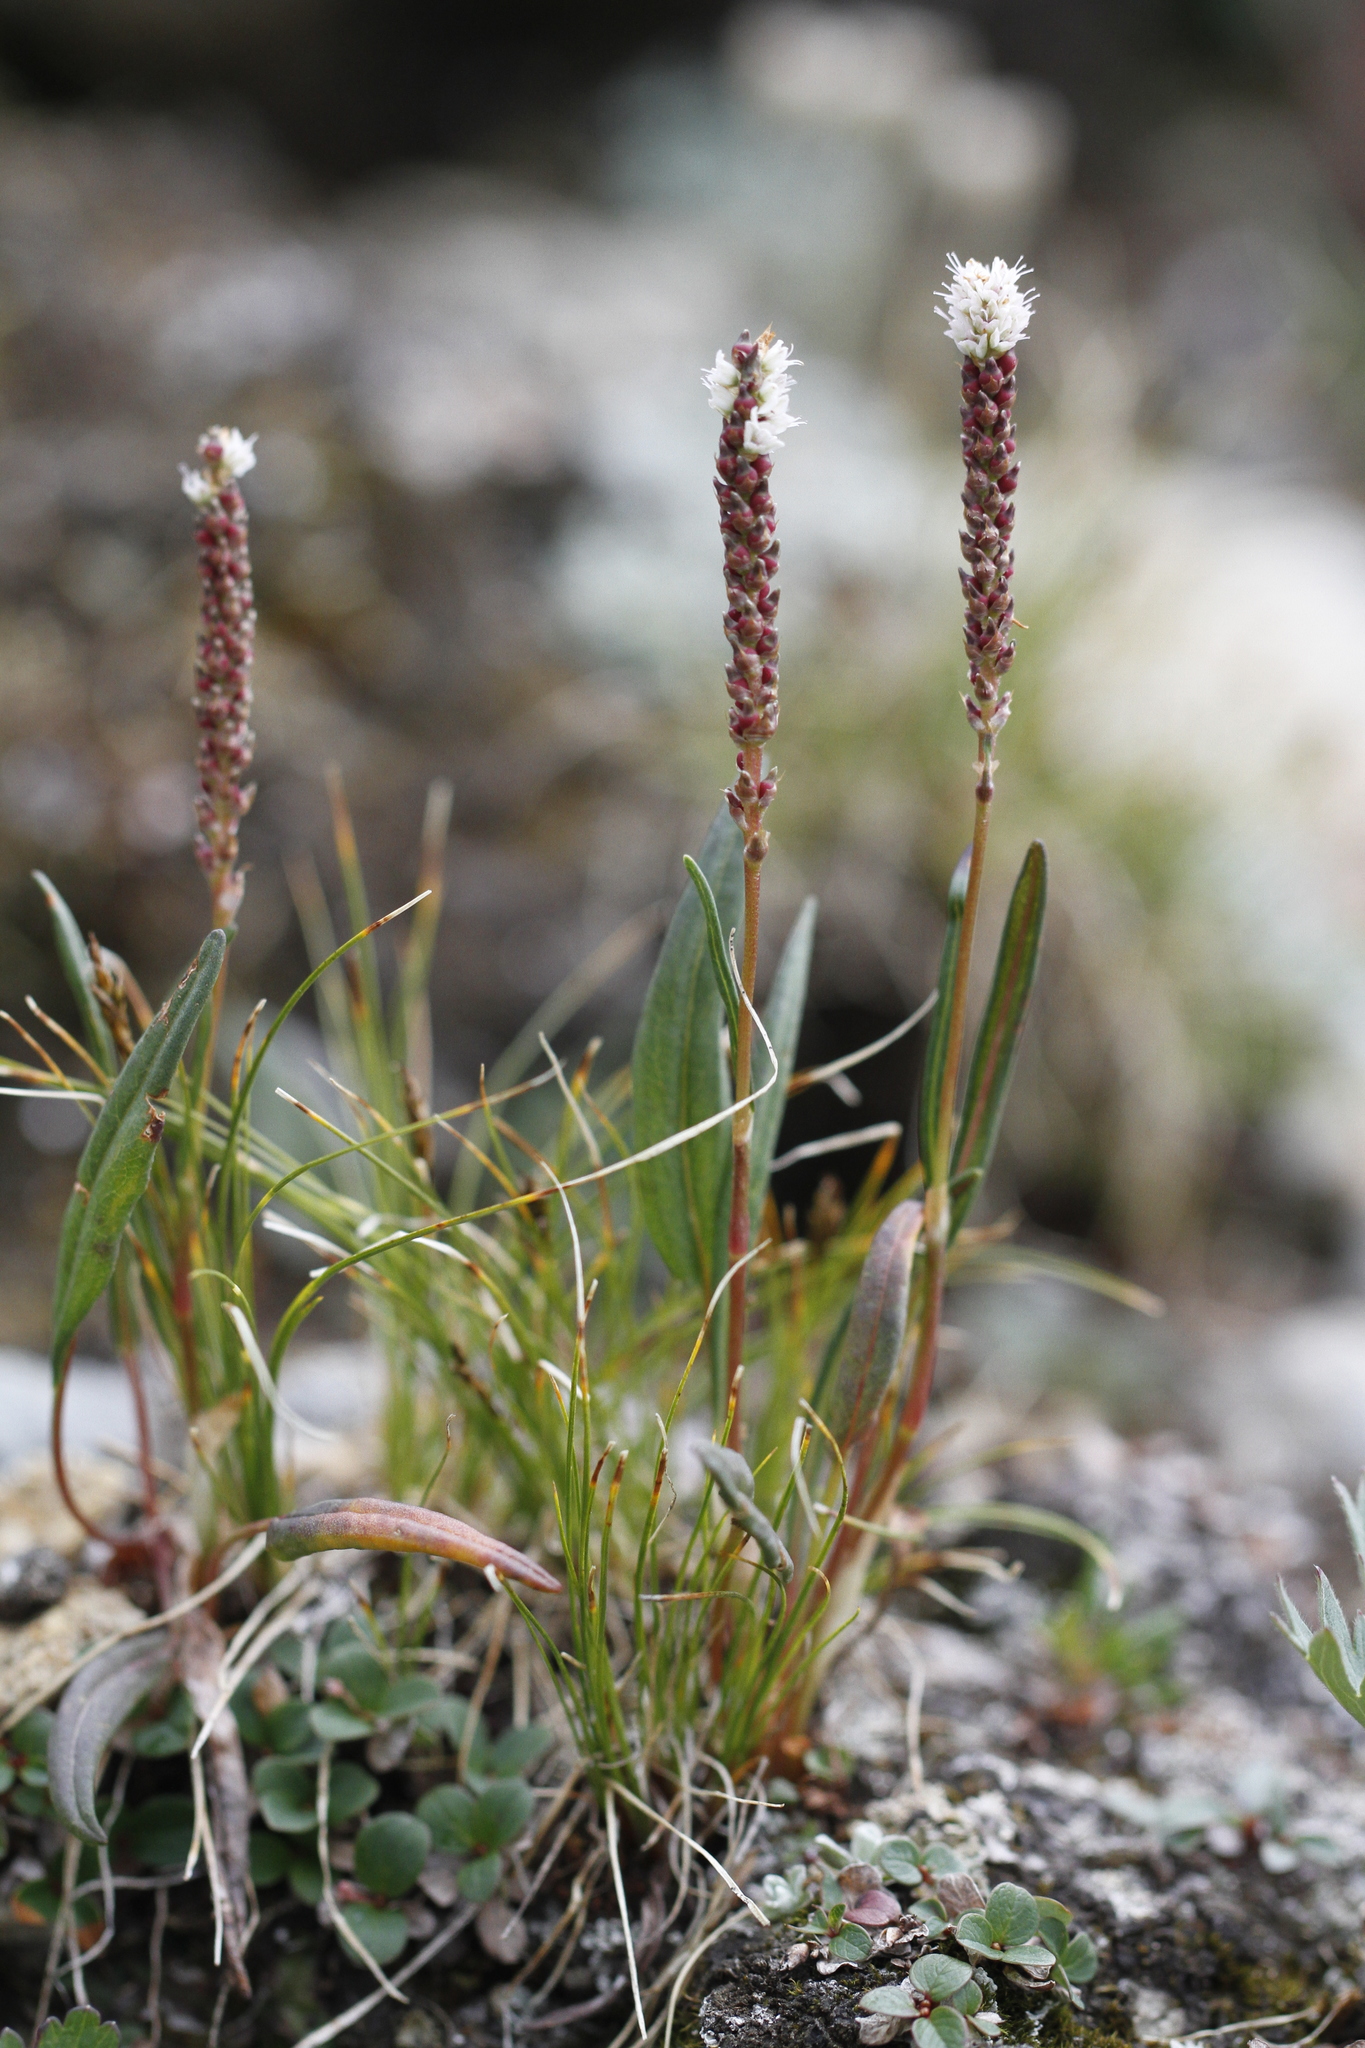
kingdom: Plantae
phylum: Tracheophyta
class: Magnoliopsida
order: Caryophyllales
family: Polygonaceae
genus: Bistorta
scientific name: Bistorta vivipara
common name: Alpine bistort
